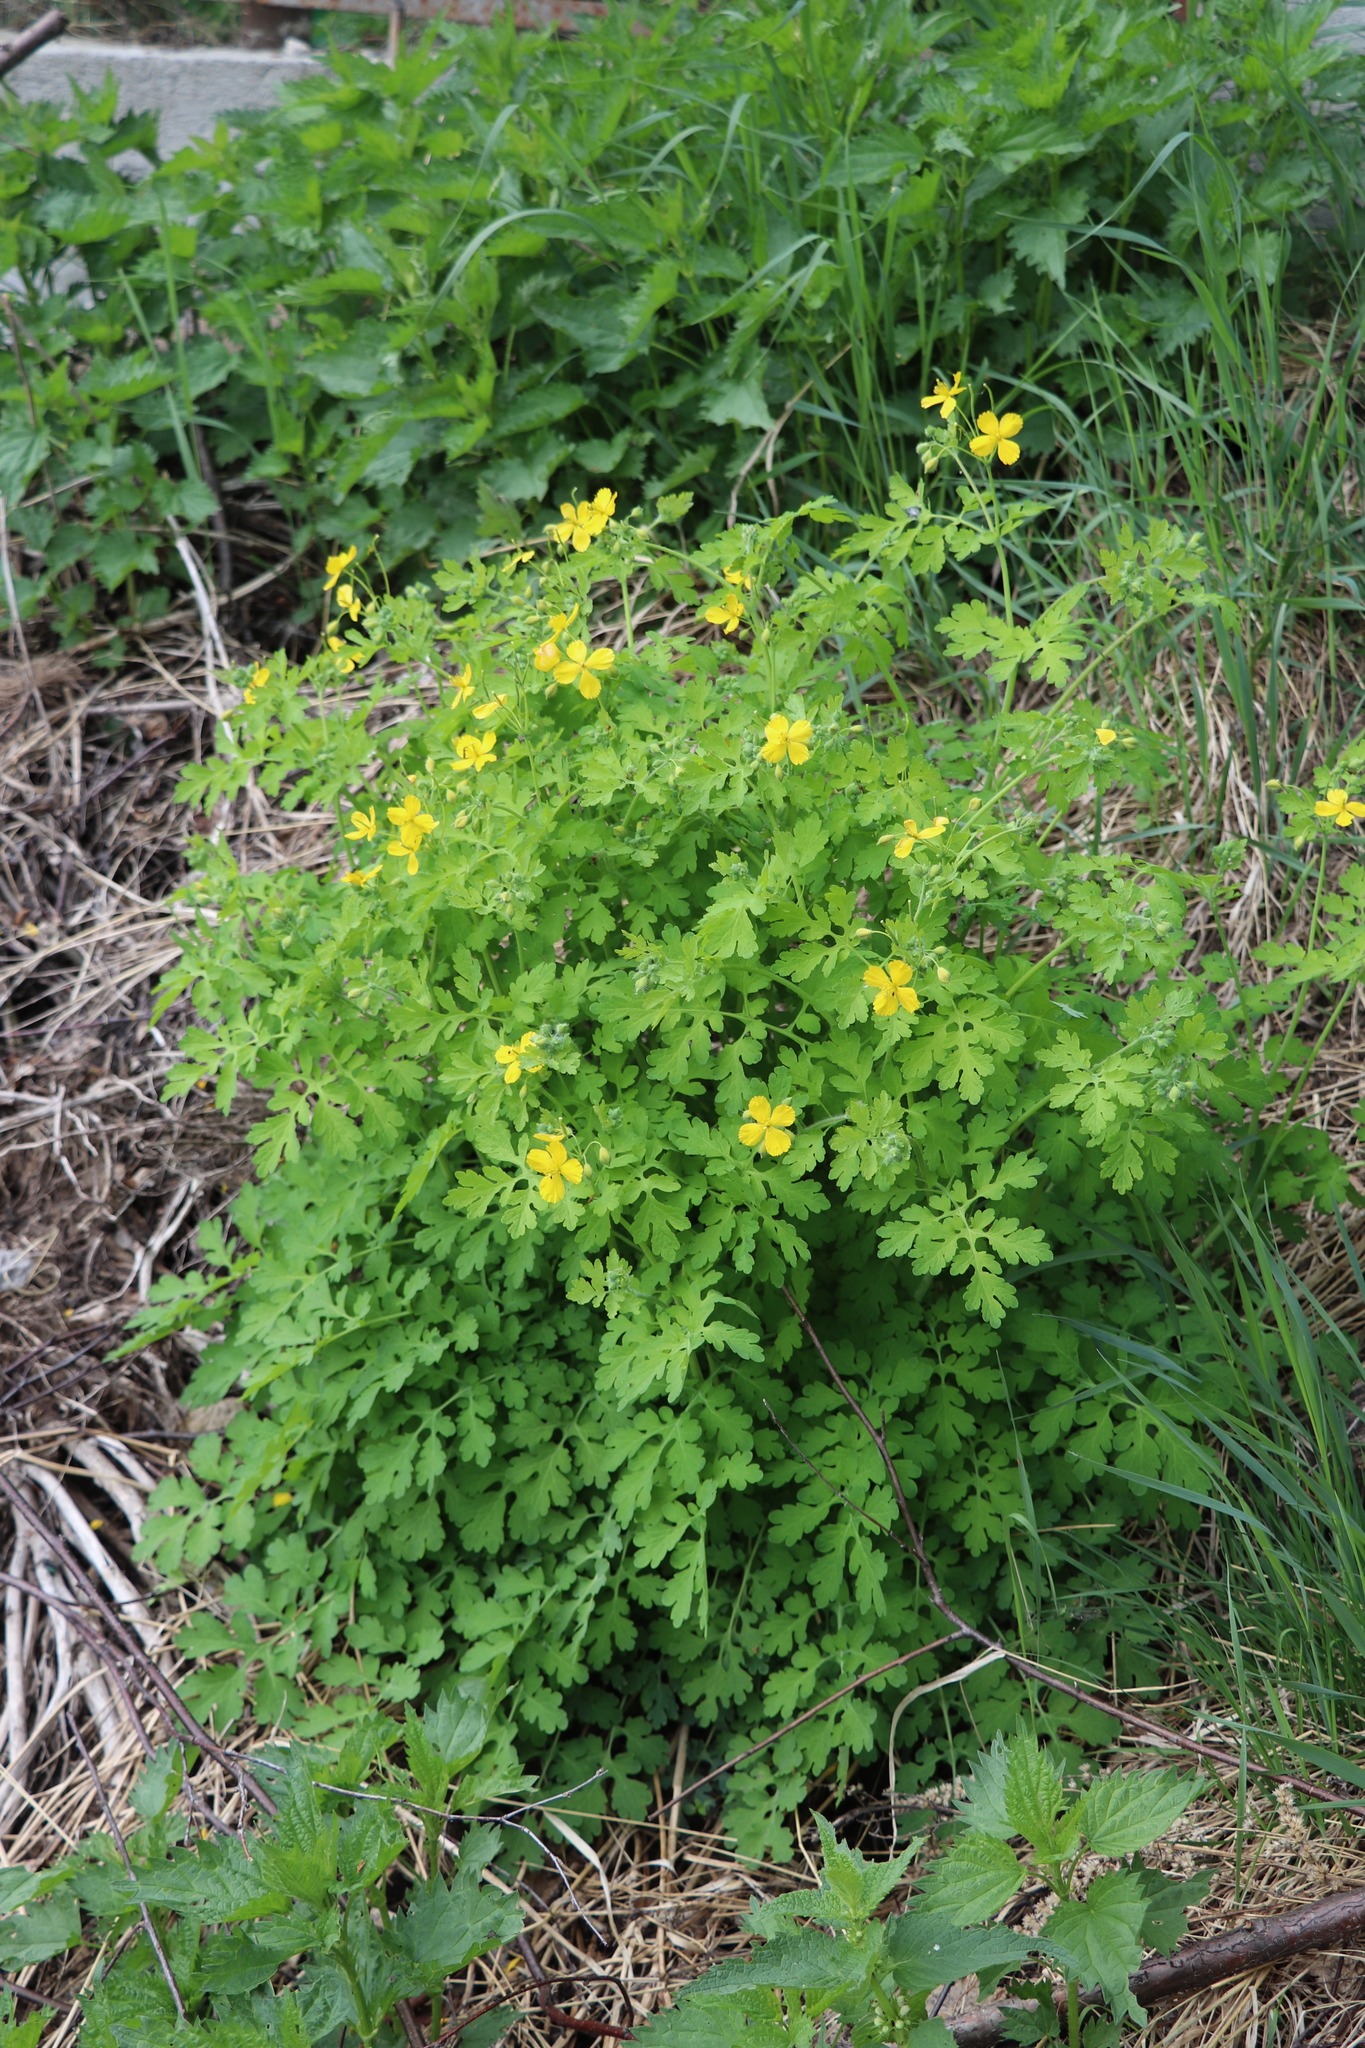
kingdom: Plantae
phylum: Tracheophyta
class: Magnoliopsida
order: Ranunculales
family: Papaveraceae
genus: Chelidonium
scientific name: Chelidonium majus
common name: Greater celandine
